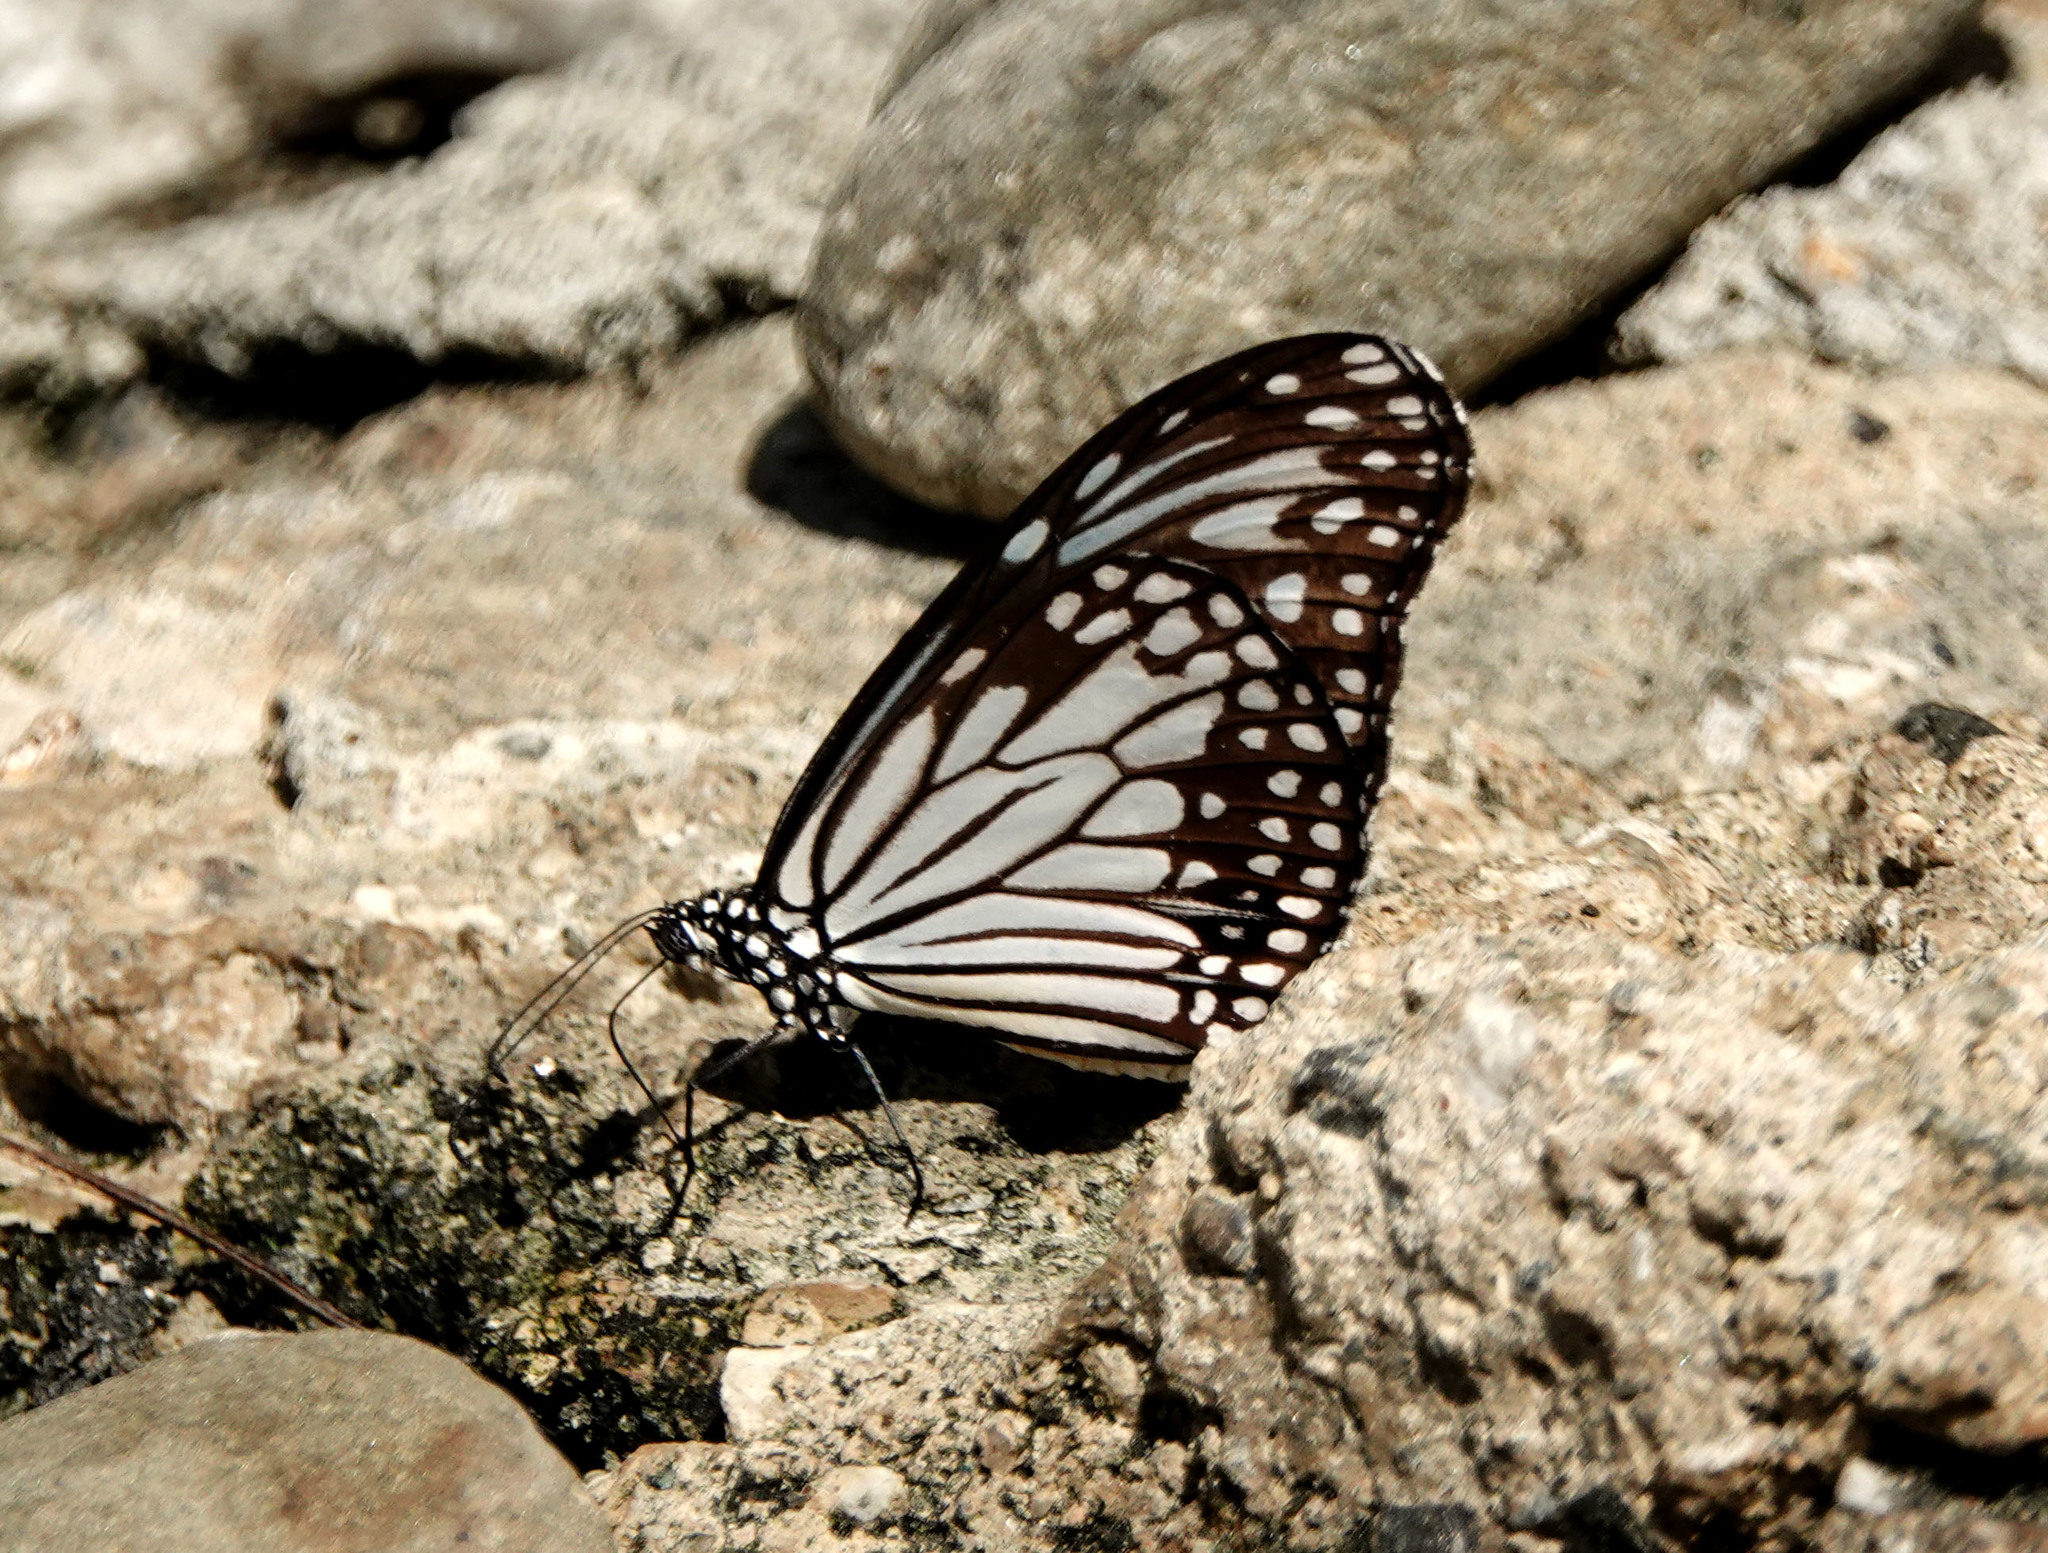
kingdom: Animalia
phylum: Arthropoda
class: Insecta
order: Lepidoptera
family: Nymphalidae
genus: Parantica
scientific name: Parantica aglea
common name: Glassy tiger
